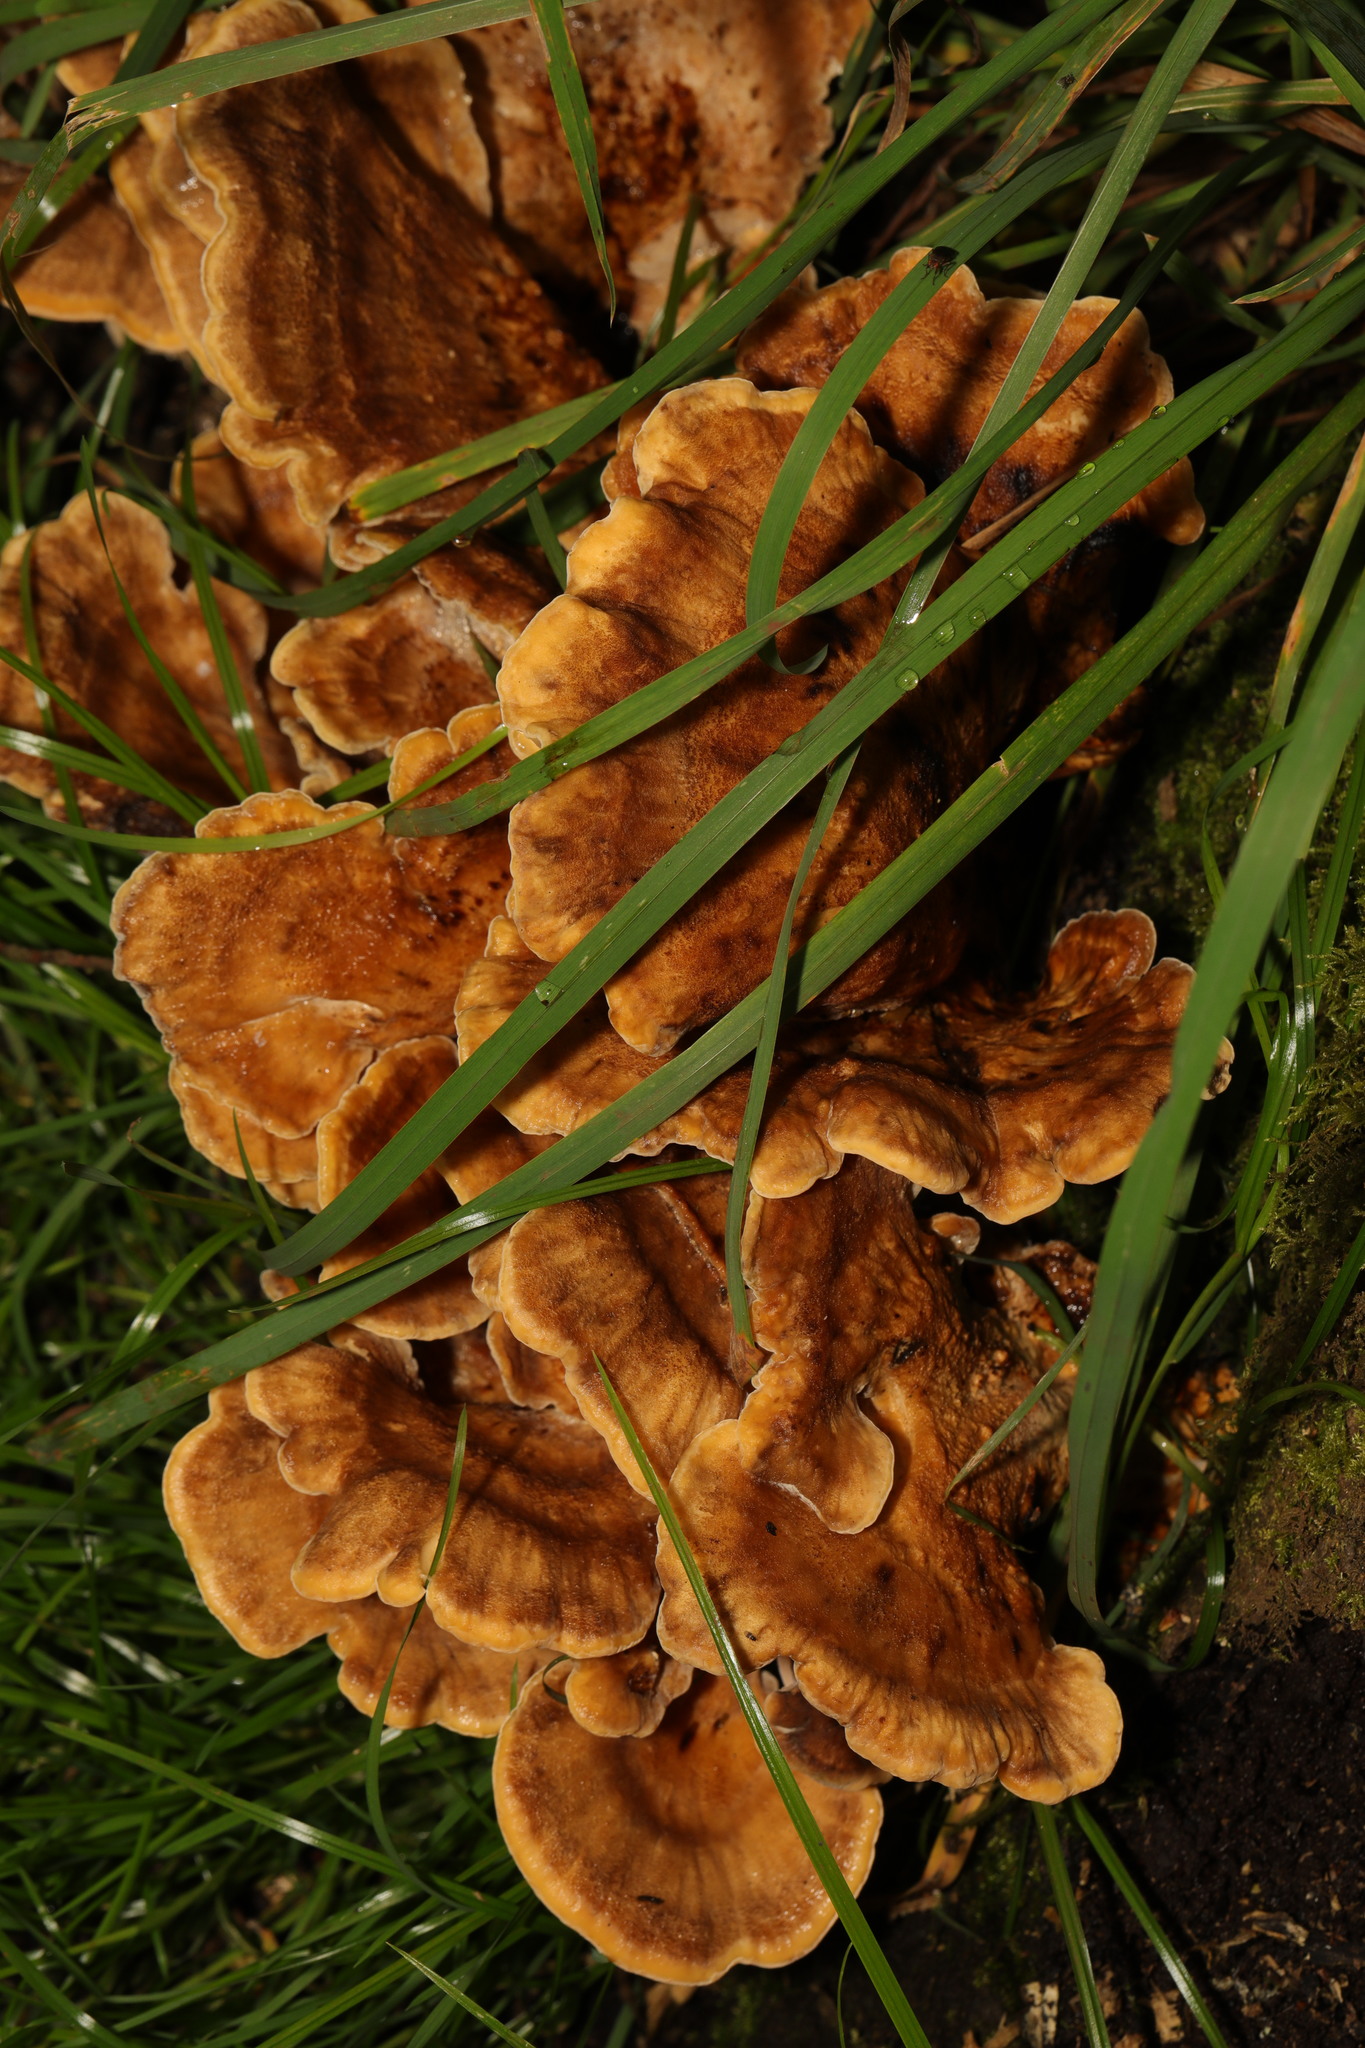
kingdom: Fungi
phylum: Basidiomycota
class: Agaricomycetes
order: Polyporales
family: Meripilaceae
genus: Meripilus
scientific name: Meripilus giganteus
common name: Giant polypore
